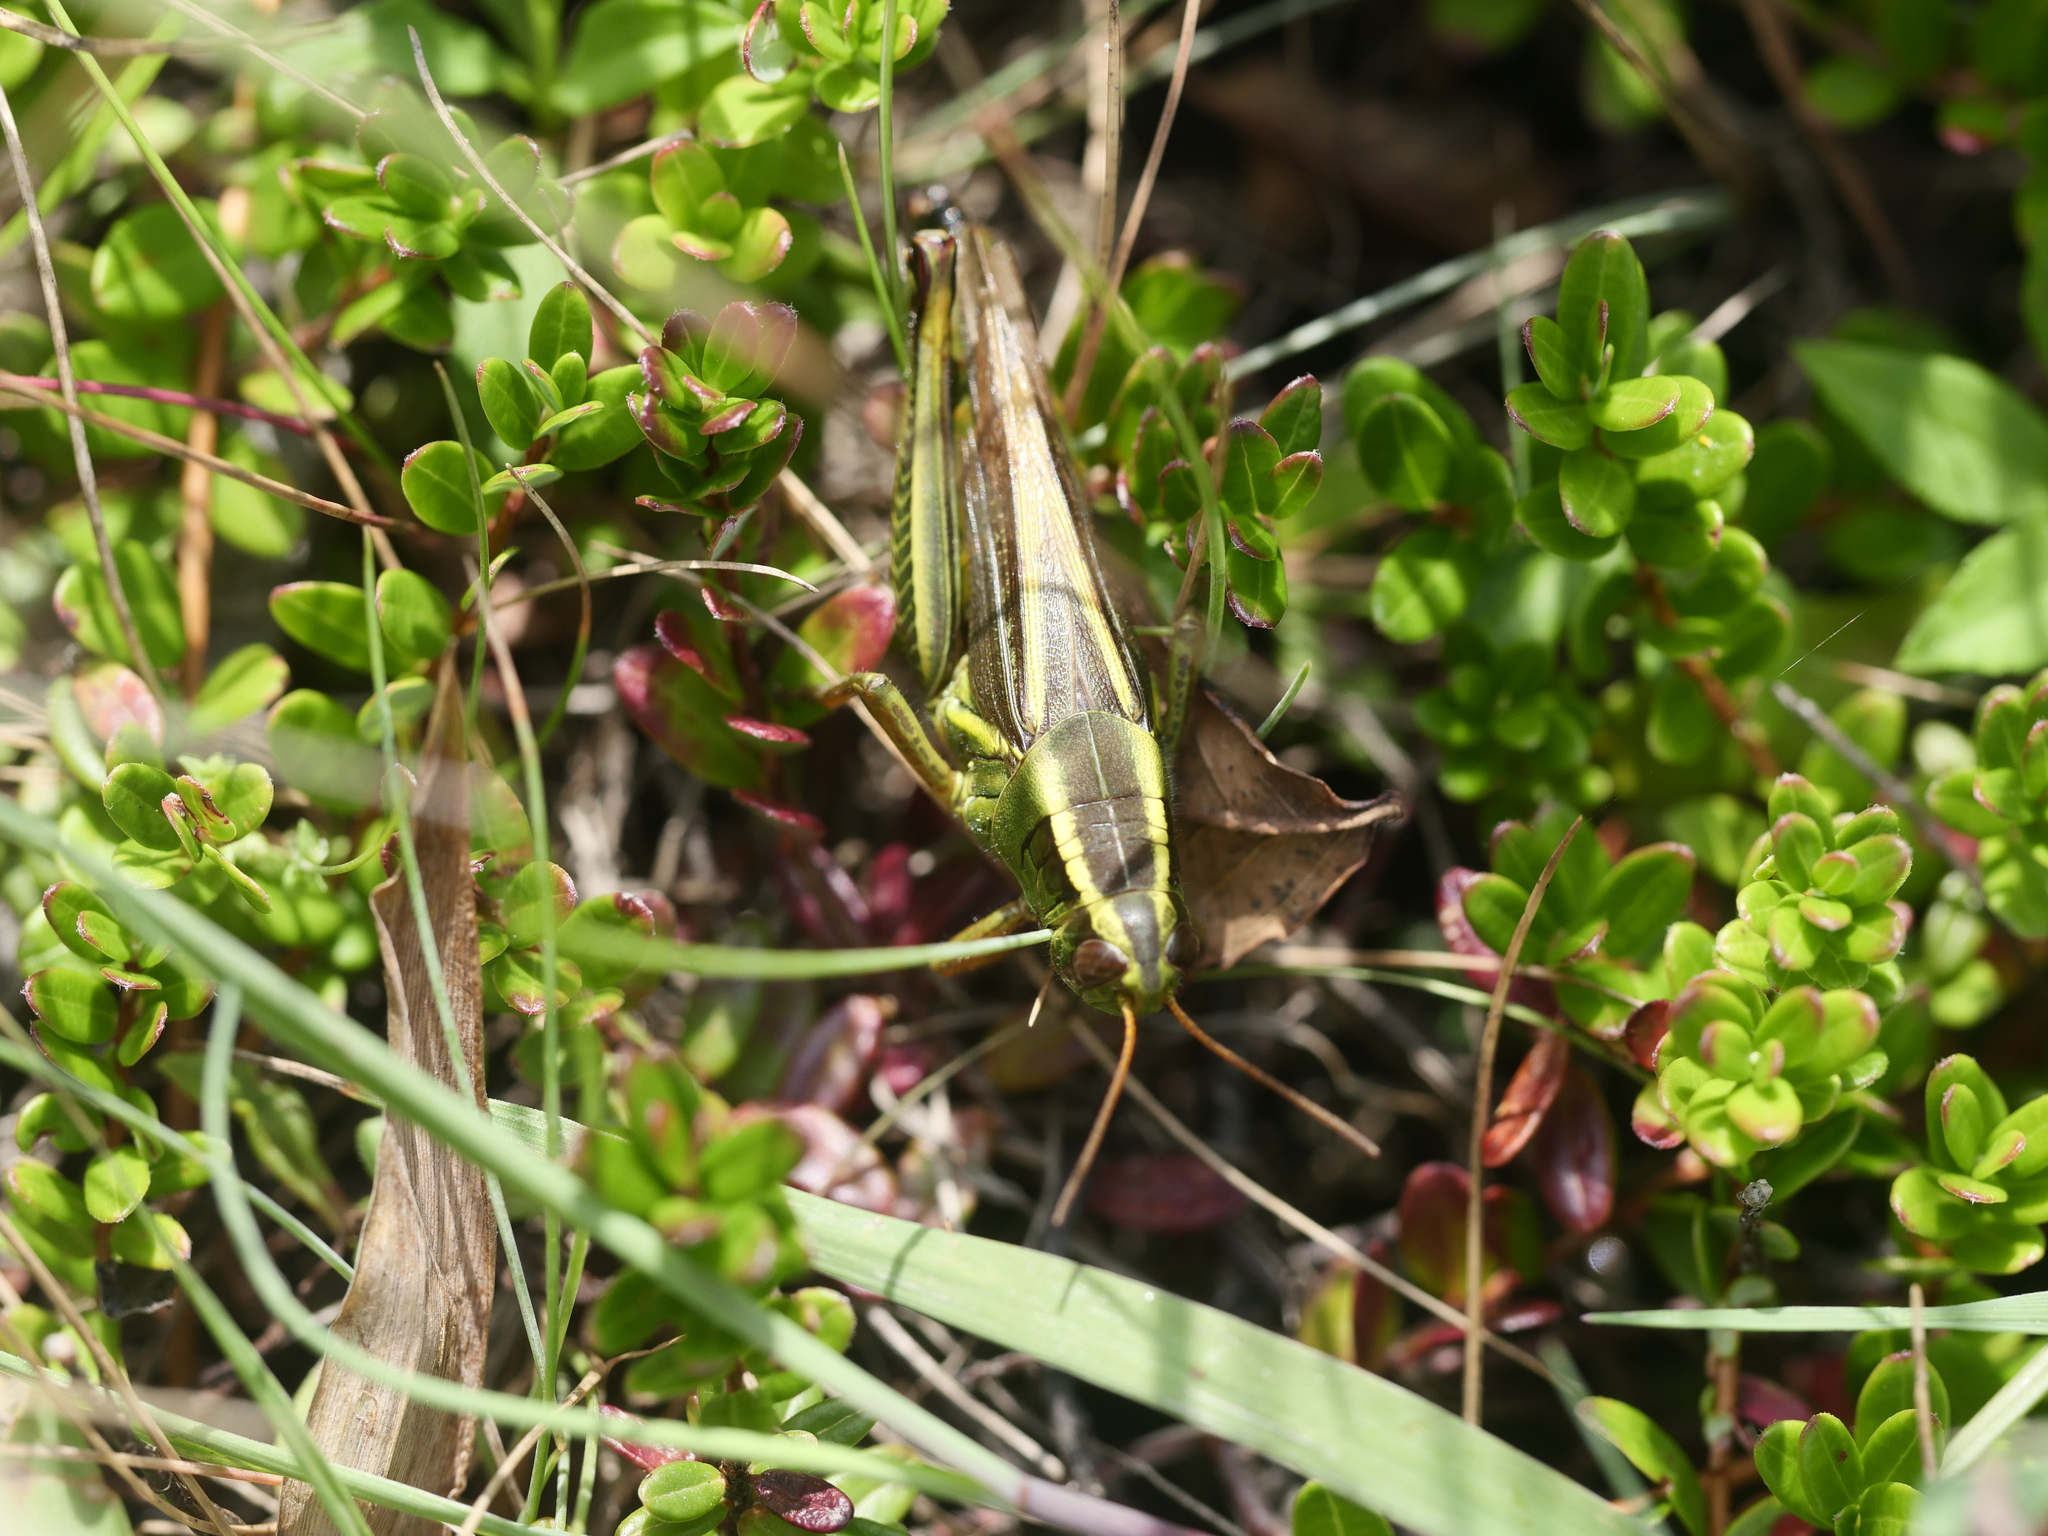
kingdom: Animalia
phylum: Arthropoda
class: Insecta
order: Orthoptera
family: Acrididae
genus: Melanoplus
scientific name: Melanoplus bivittatus
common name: Two-striped grasshopper
